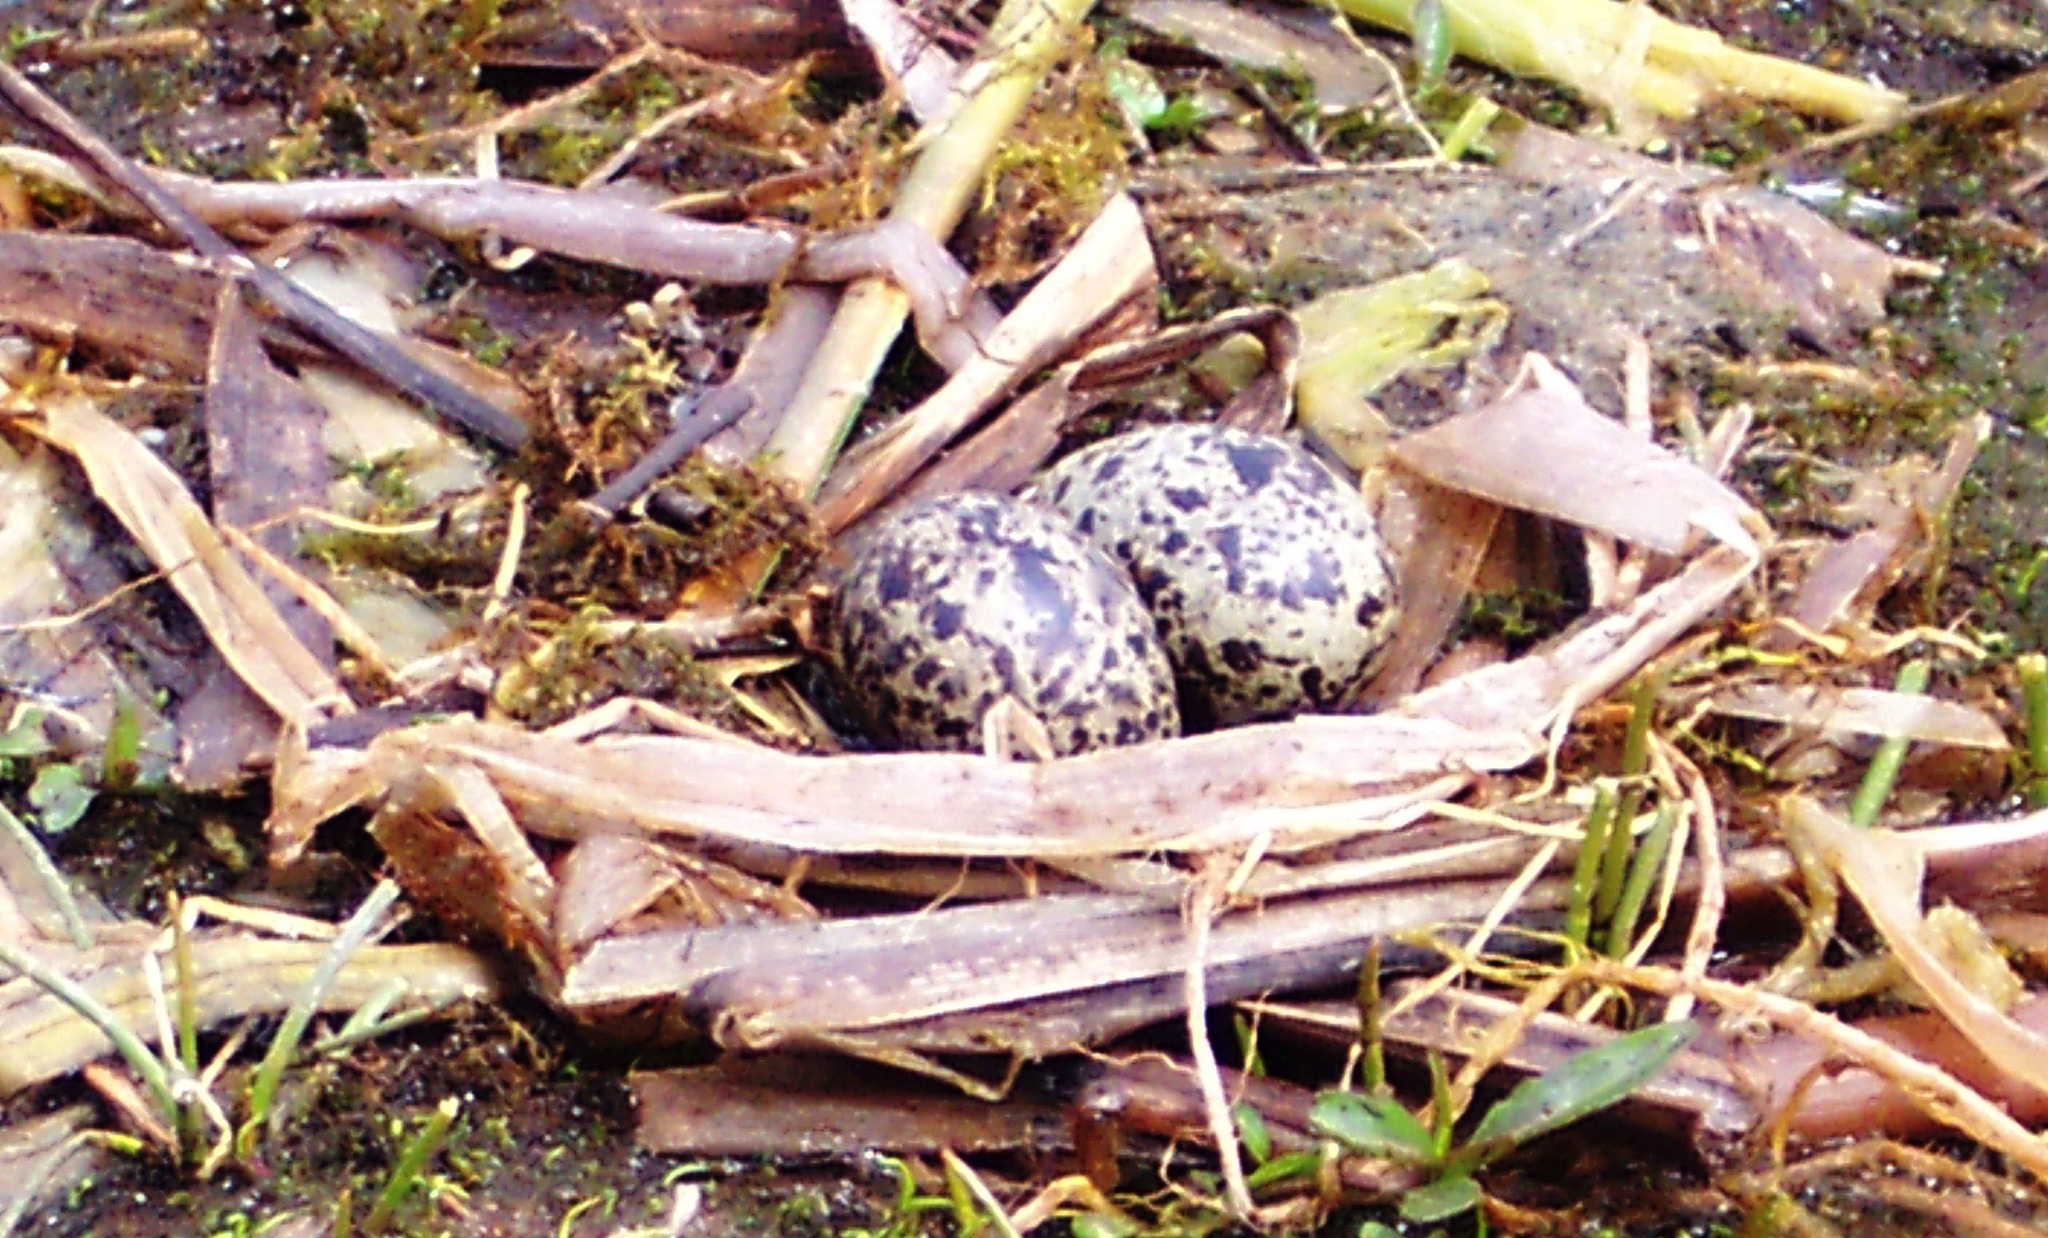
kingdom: Animalia
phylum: Chordata
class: Aves
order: Charadriiformes
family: Laridae
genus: Chlidonias
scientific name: Chlidonias niger
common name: Black tern
